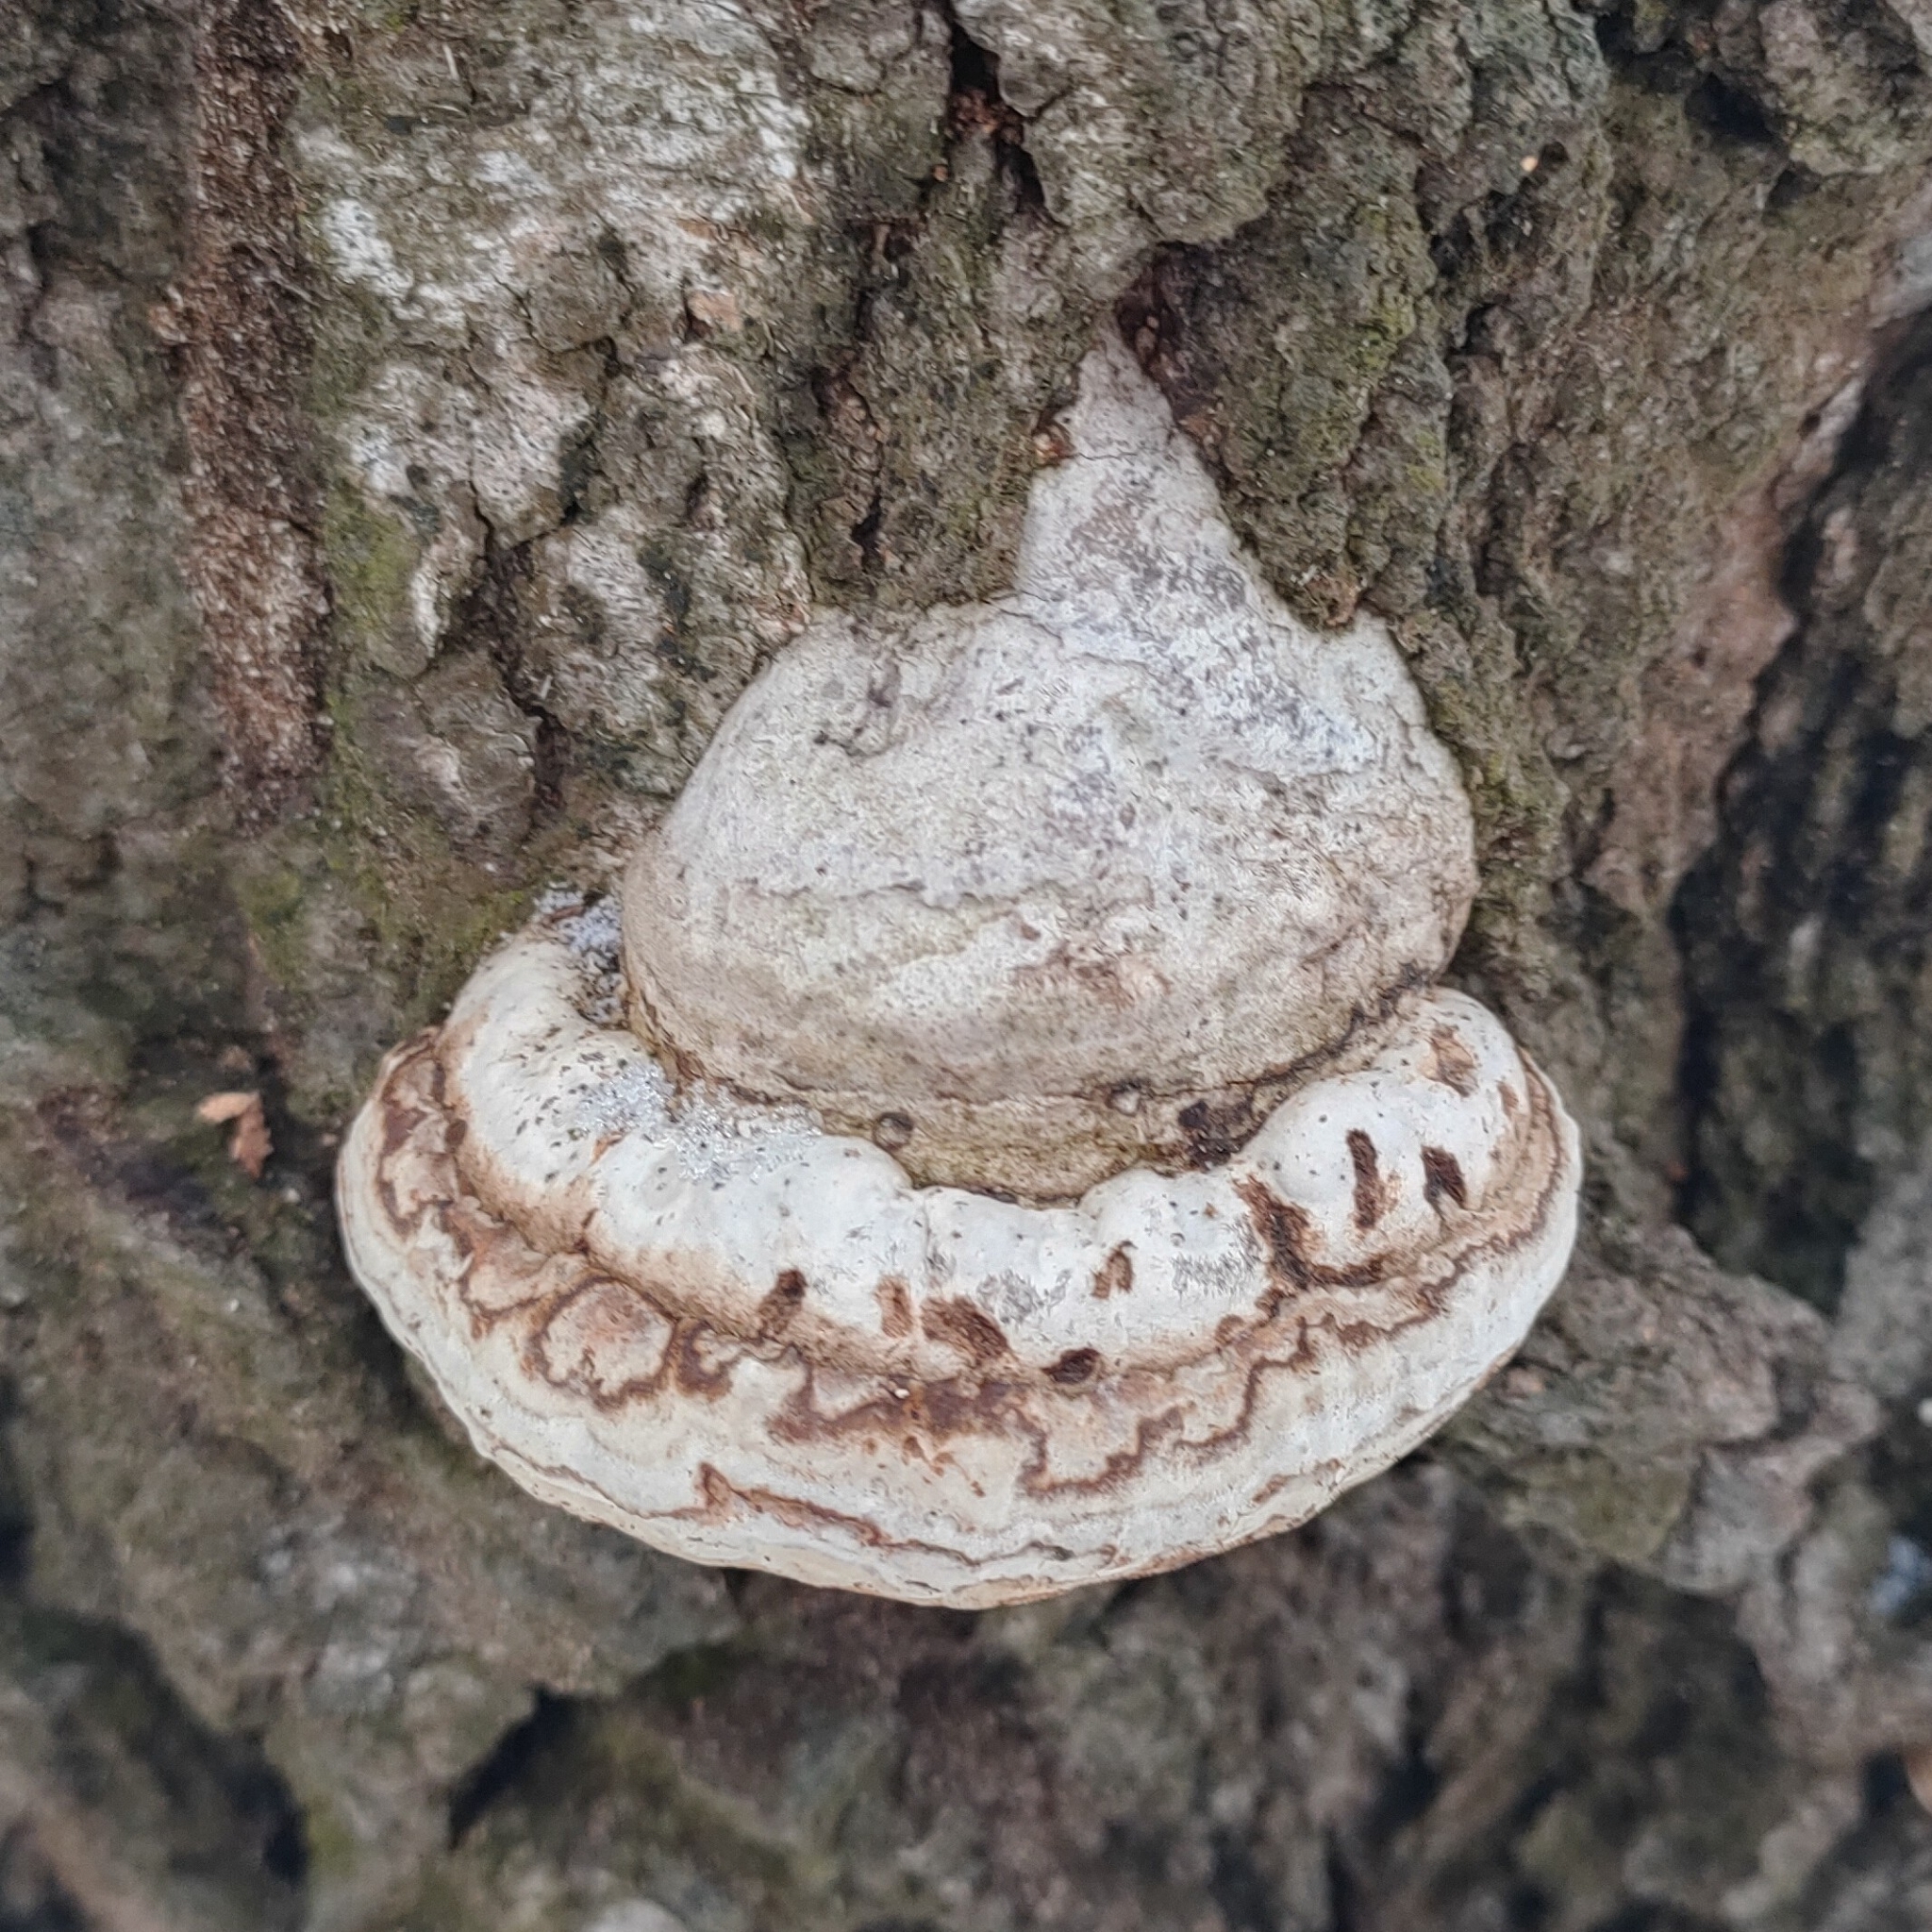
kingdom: Fungi
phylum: Basidiomycota
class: Agaricomycetes
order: Polyporales
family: Polyporaceae
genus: Fomes
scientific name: Fomes fomentarius
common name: Hoof fungus
